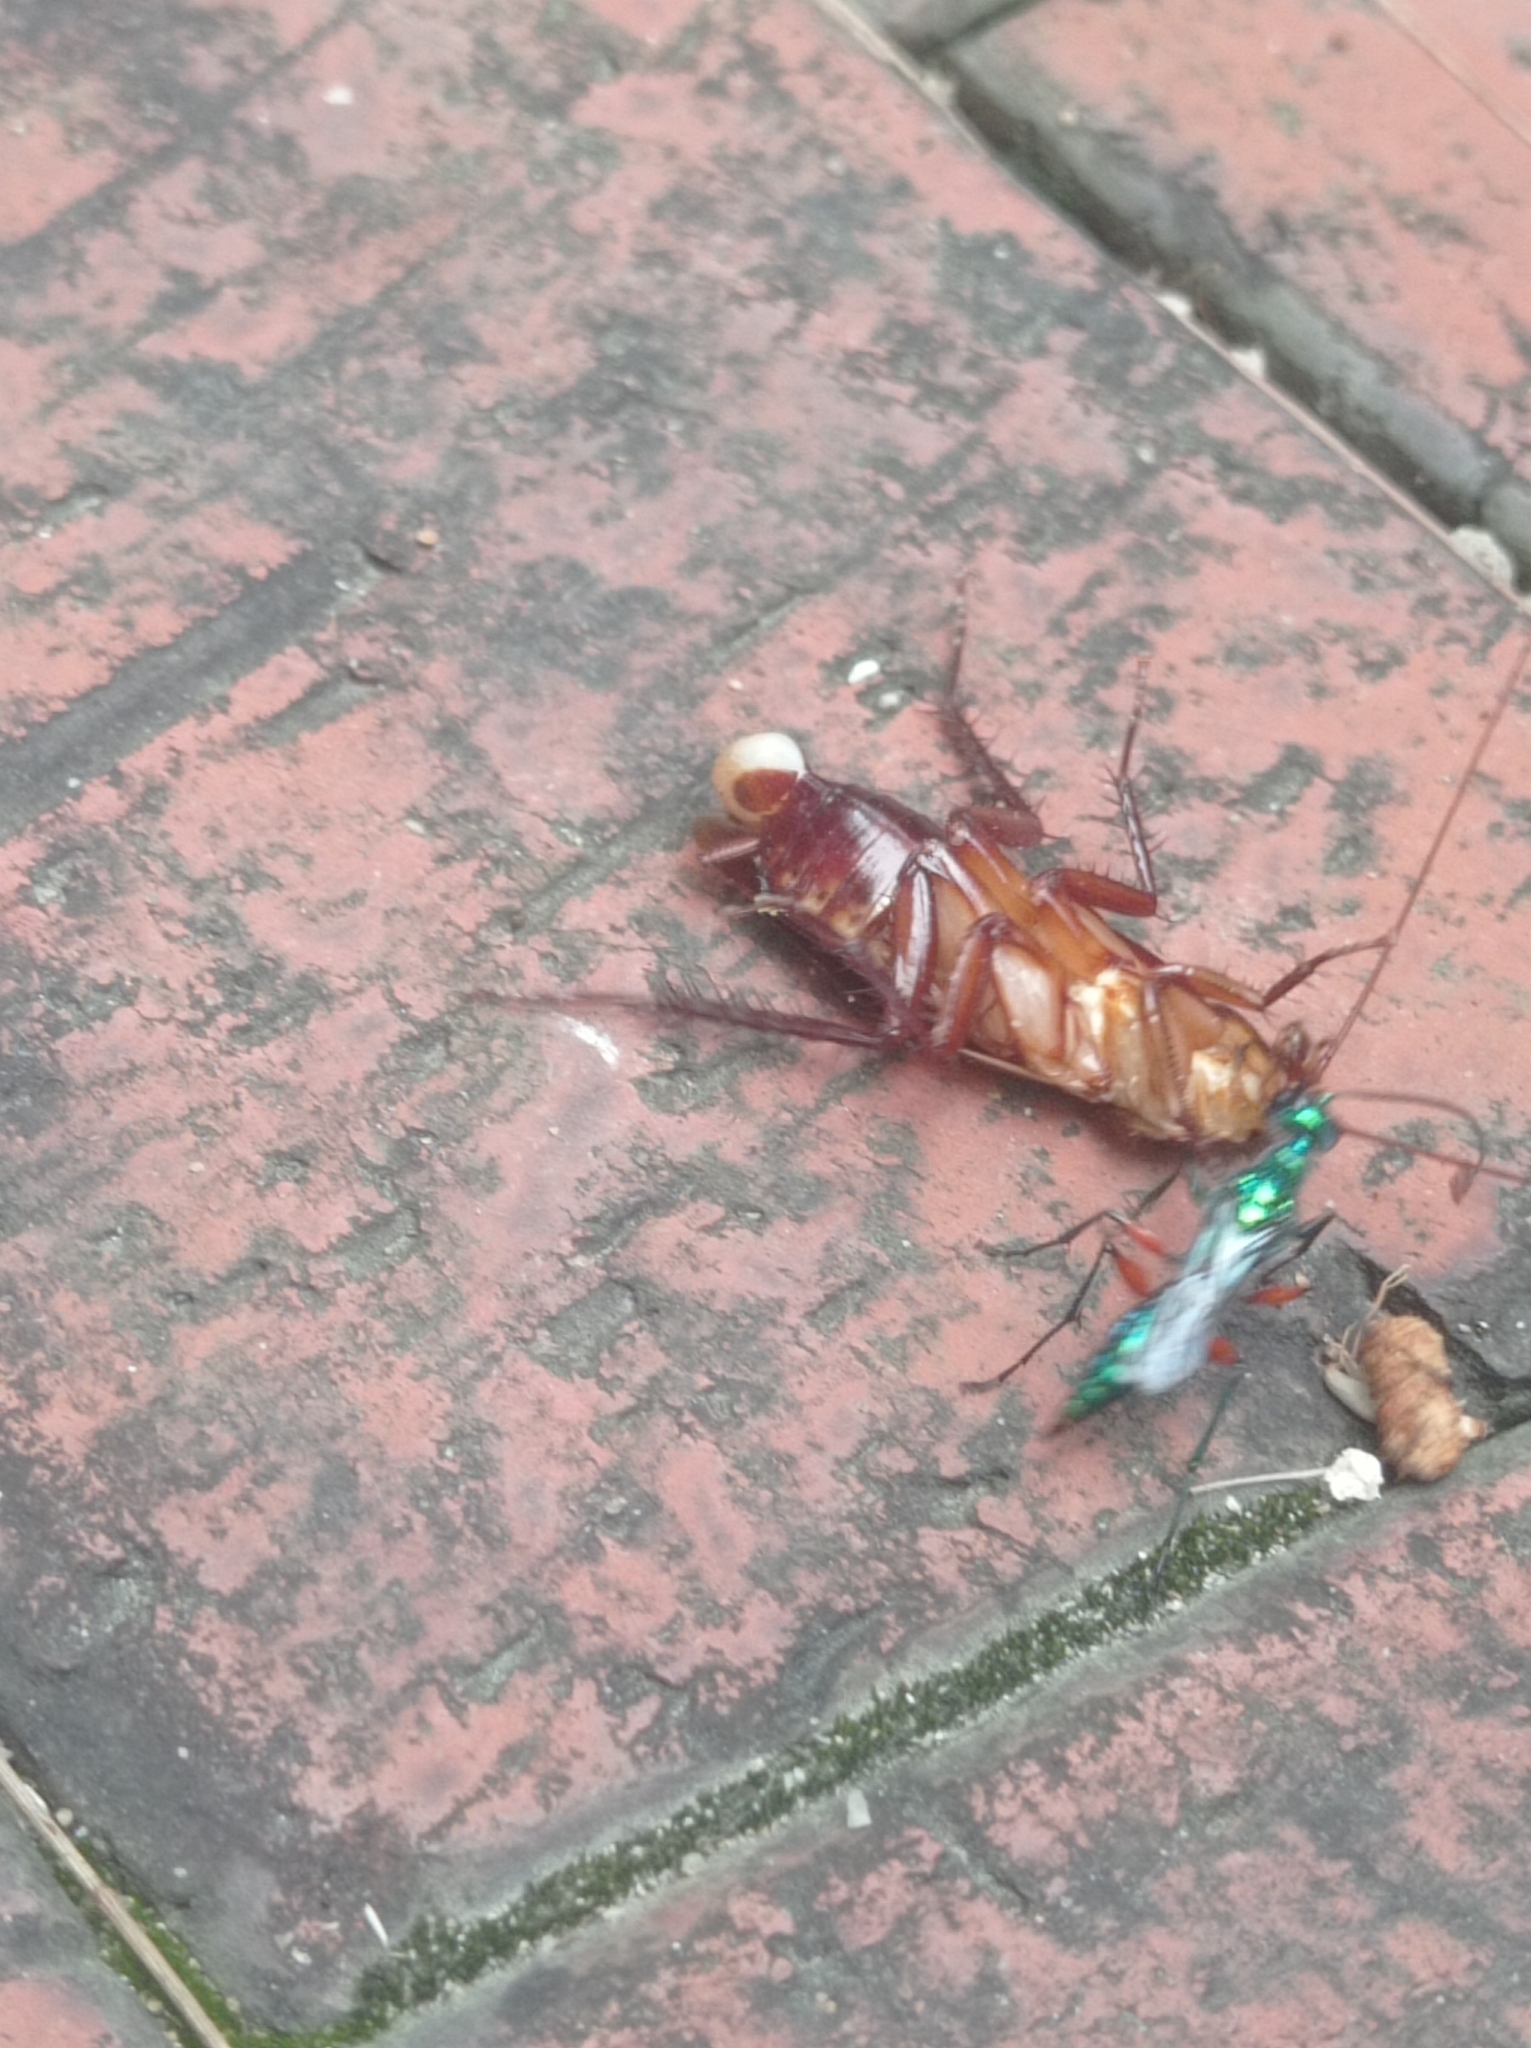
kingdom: Animalia
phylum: Arthropoda
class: Insecta
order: Hymenoptera
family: Ampulicidae
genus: Ampulex
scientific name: Ampulex compressa
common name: Emerald cockroach wasp
